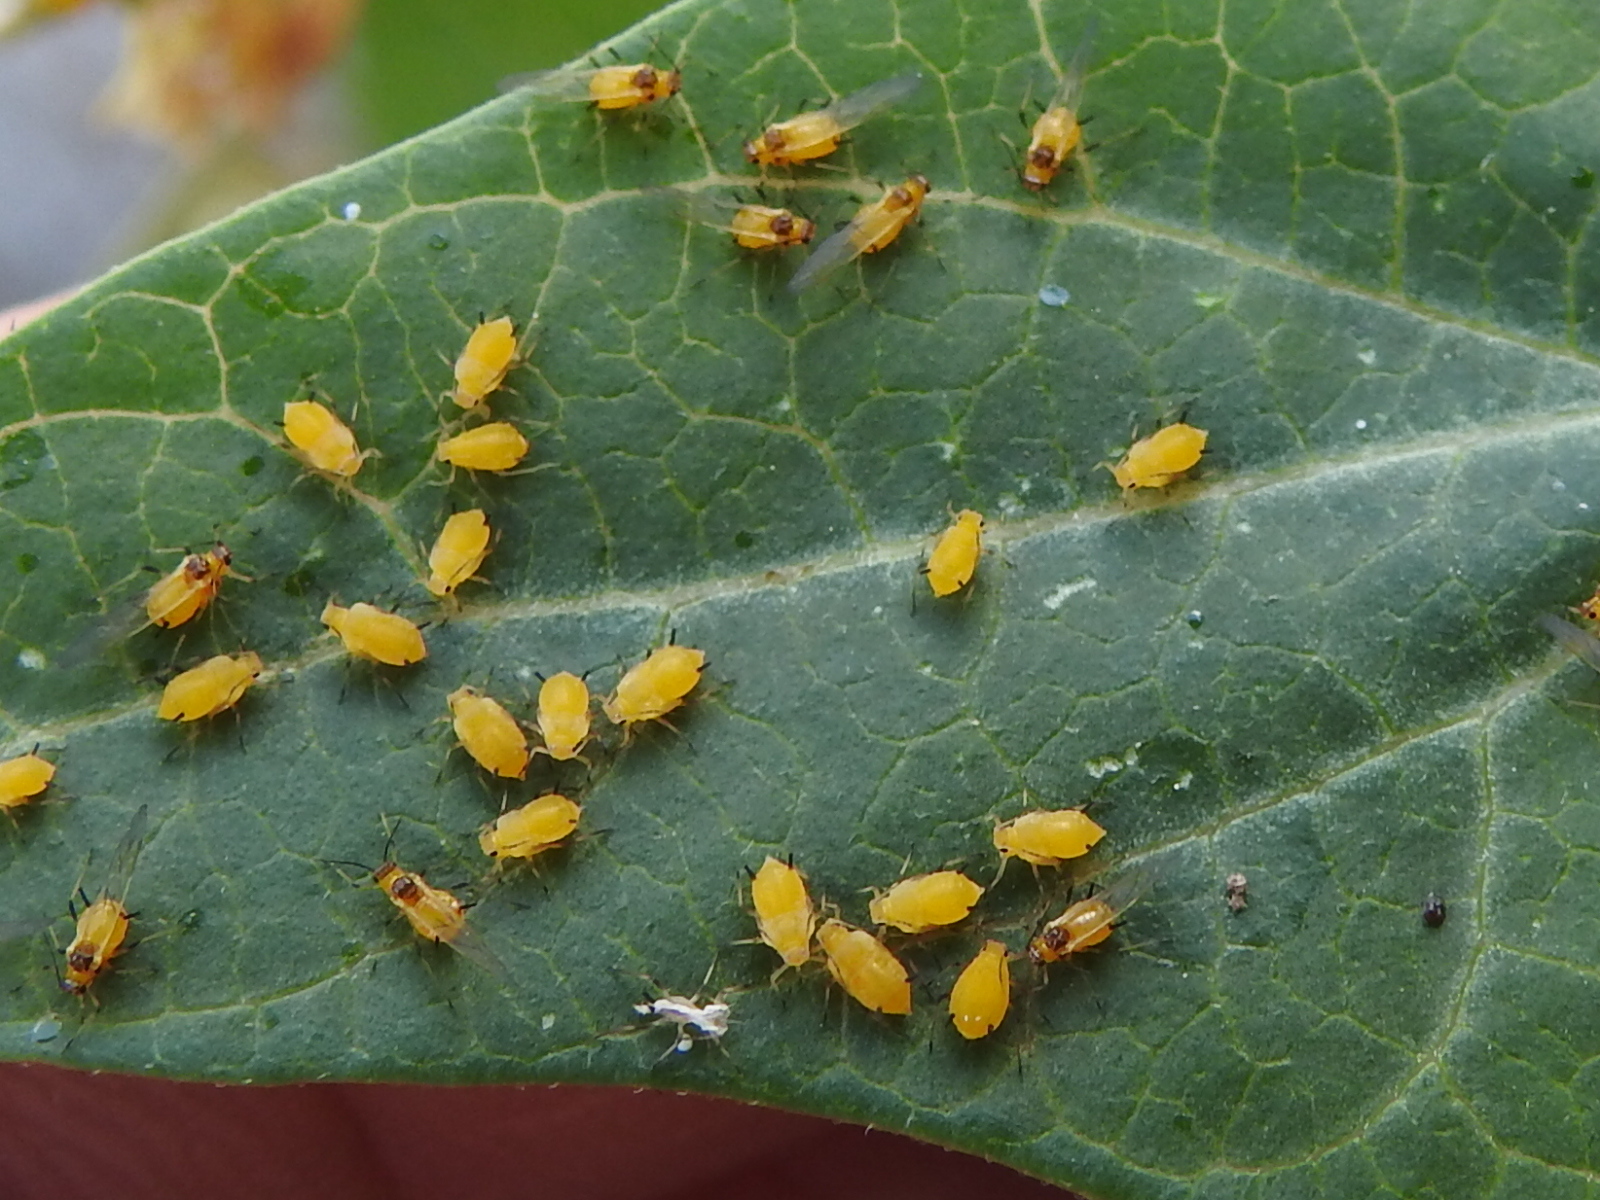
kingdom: Animalia
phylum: Arthropoda
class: Insecta
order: Hemiptera
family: Aphididae
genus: Aphis
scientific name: Aphis nerii
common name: Oleander aphid
